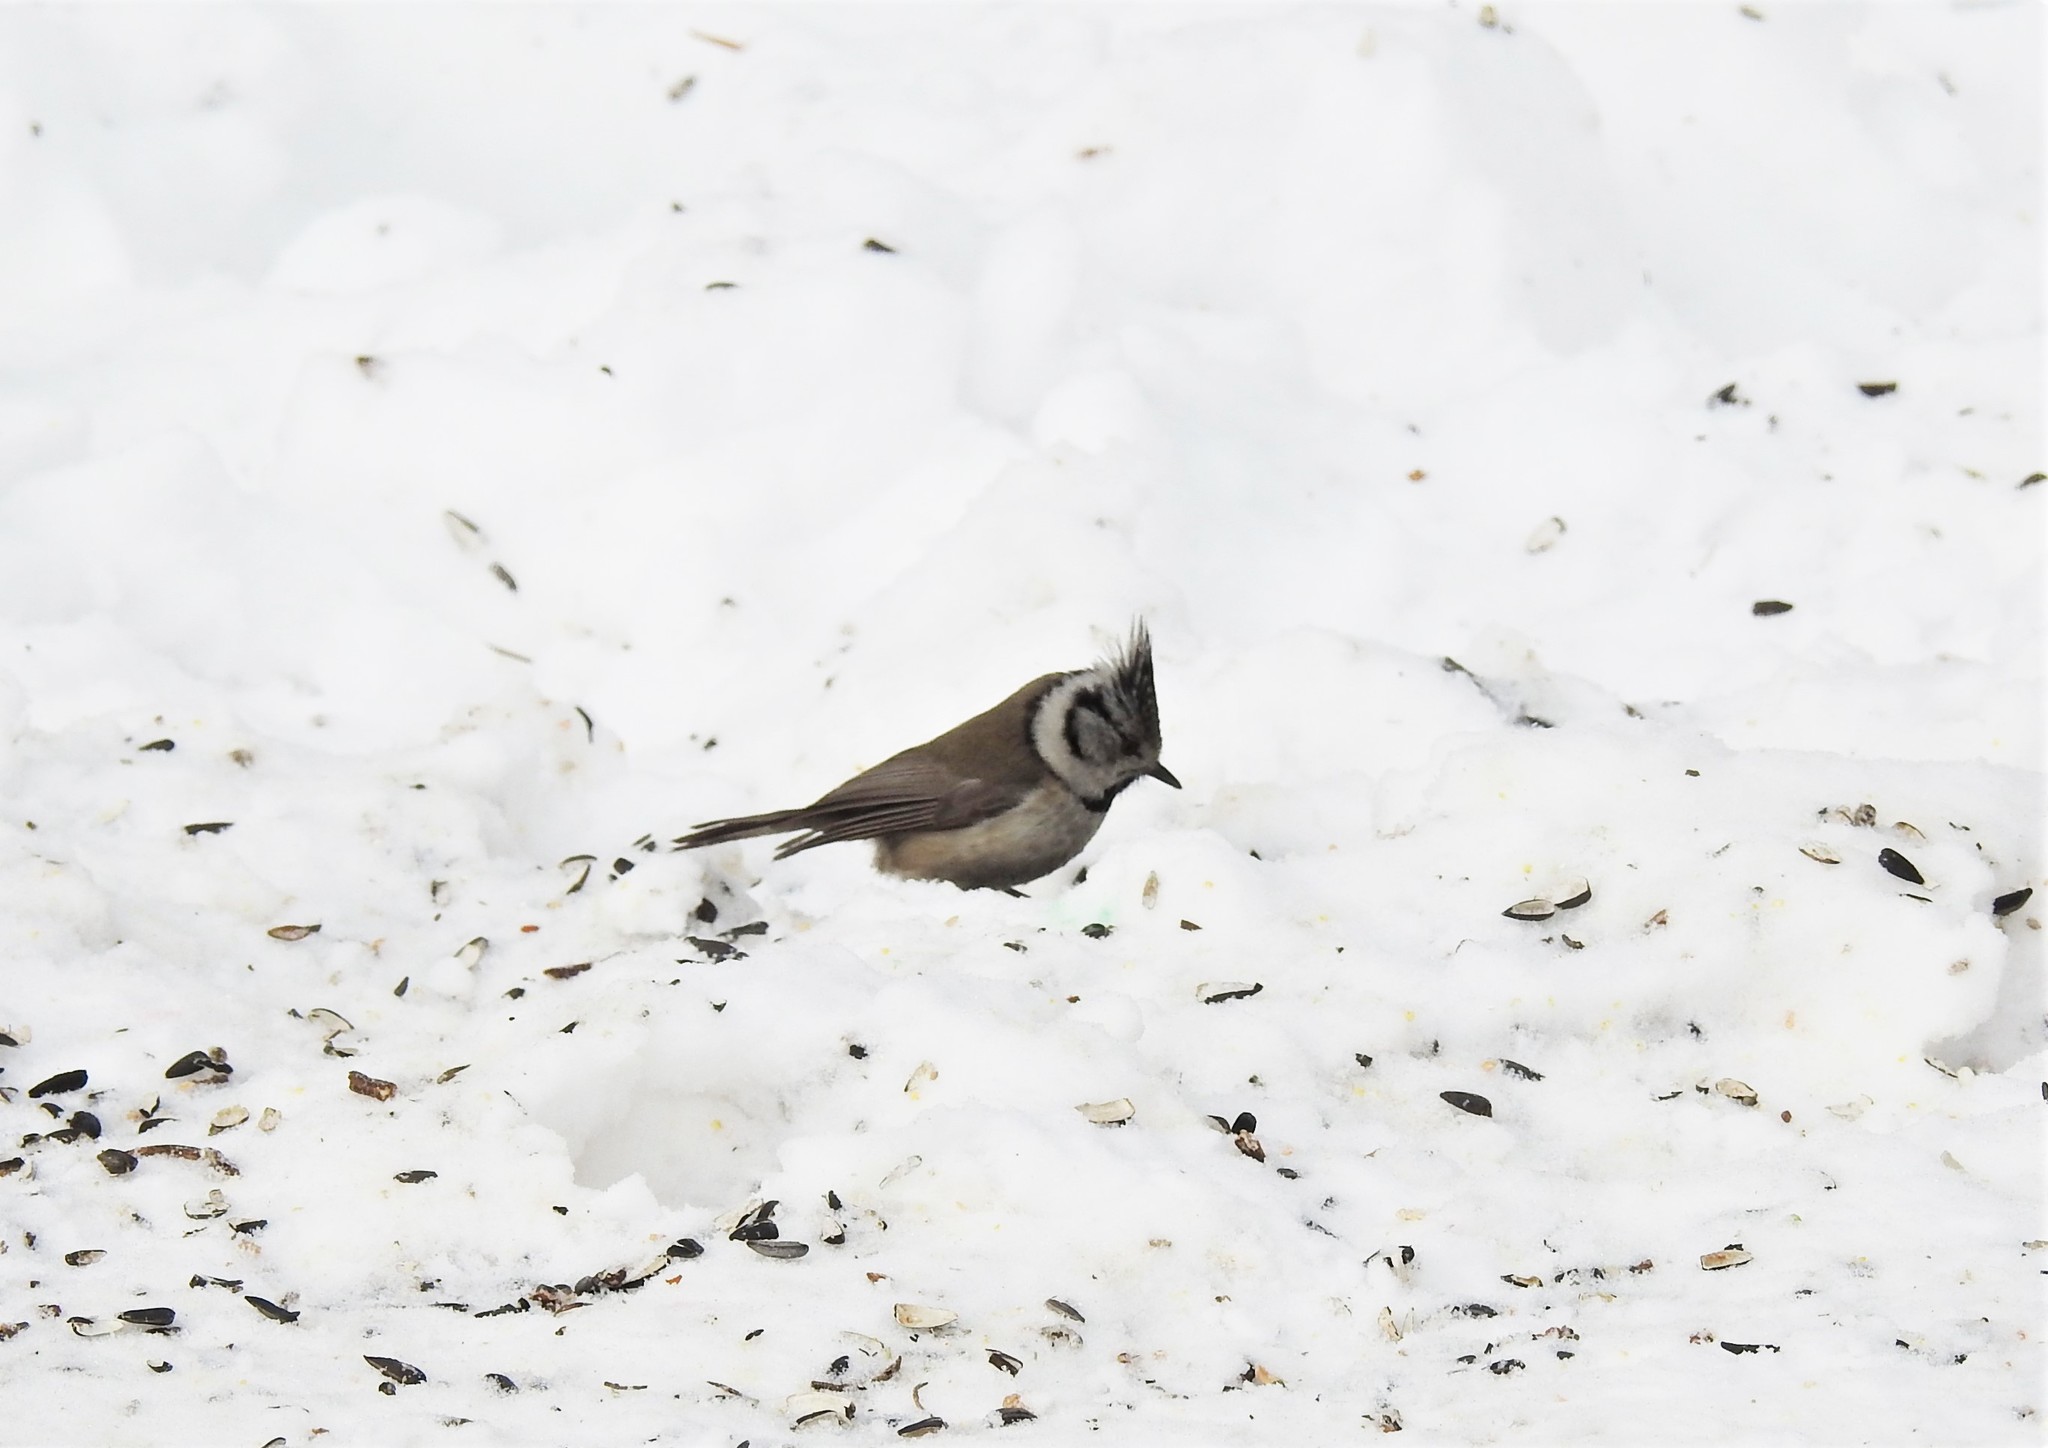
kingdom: Animalia
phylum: Chordata
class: Aves
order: Passeriformes
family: Paridae
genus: Lophophanes
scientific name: Lophophanes cristatus
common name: European crested tit
